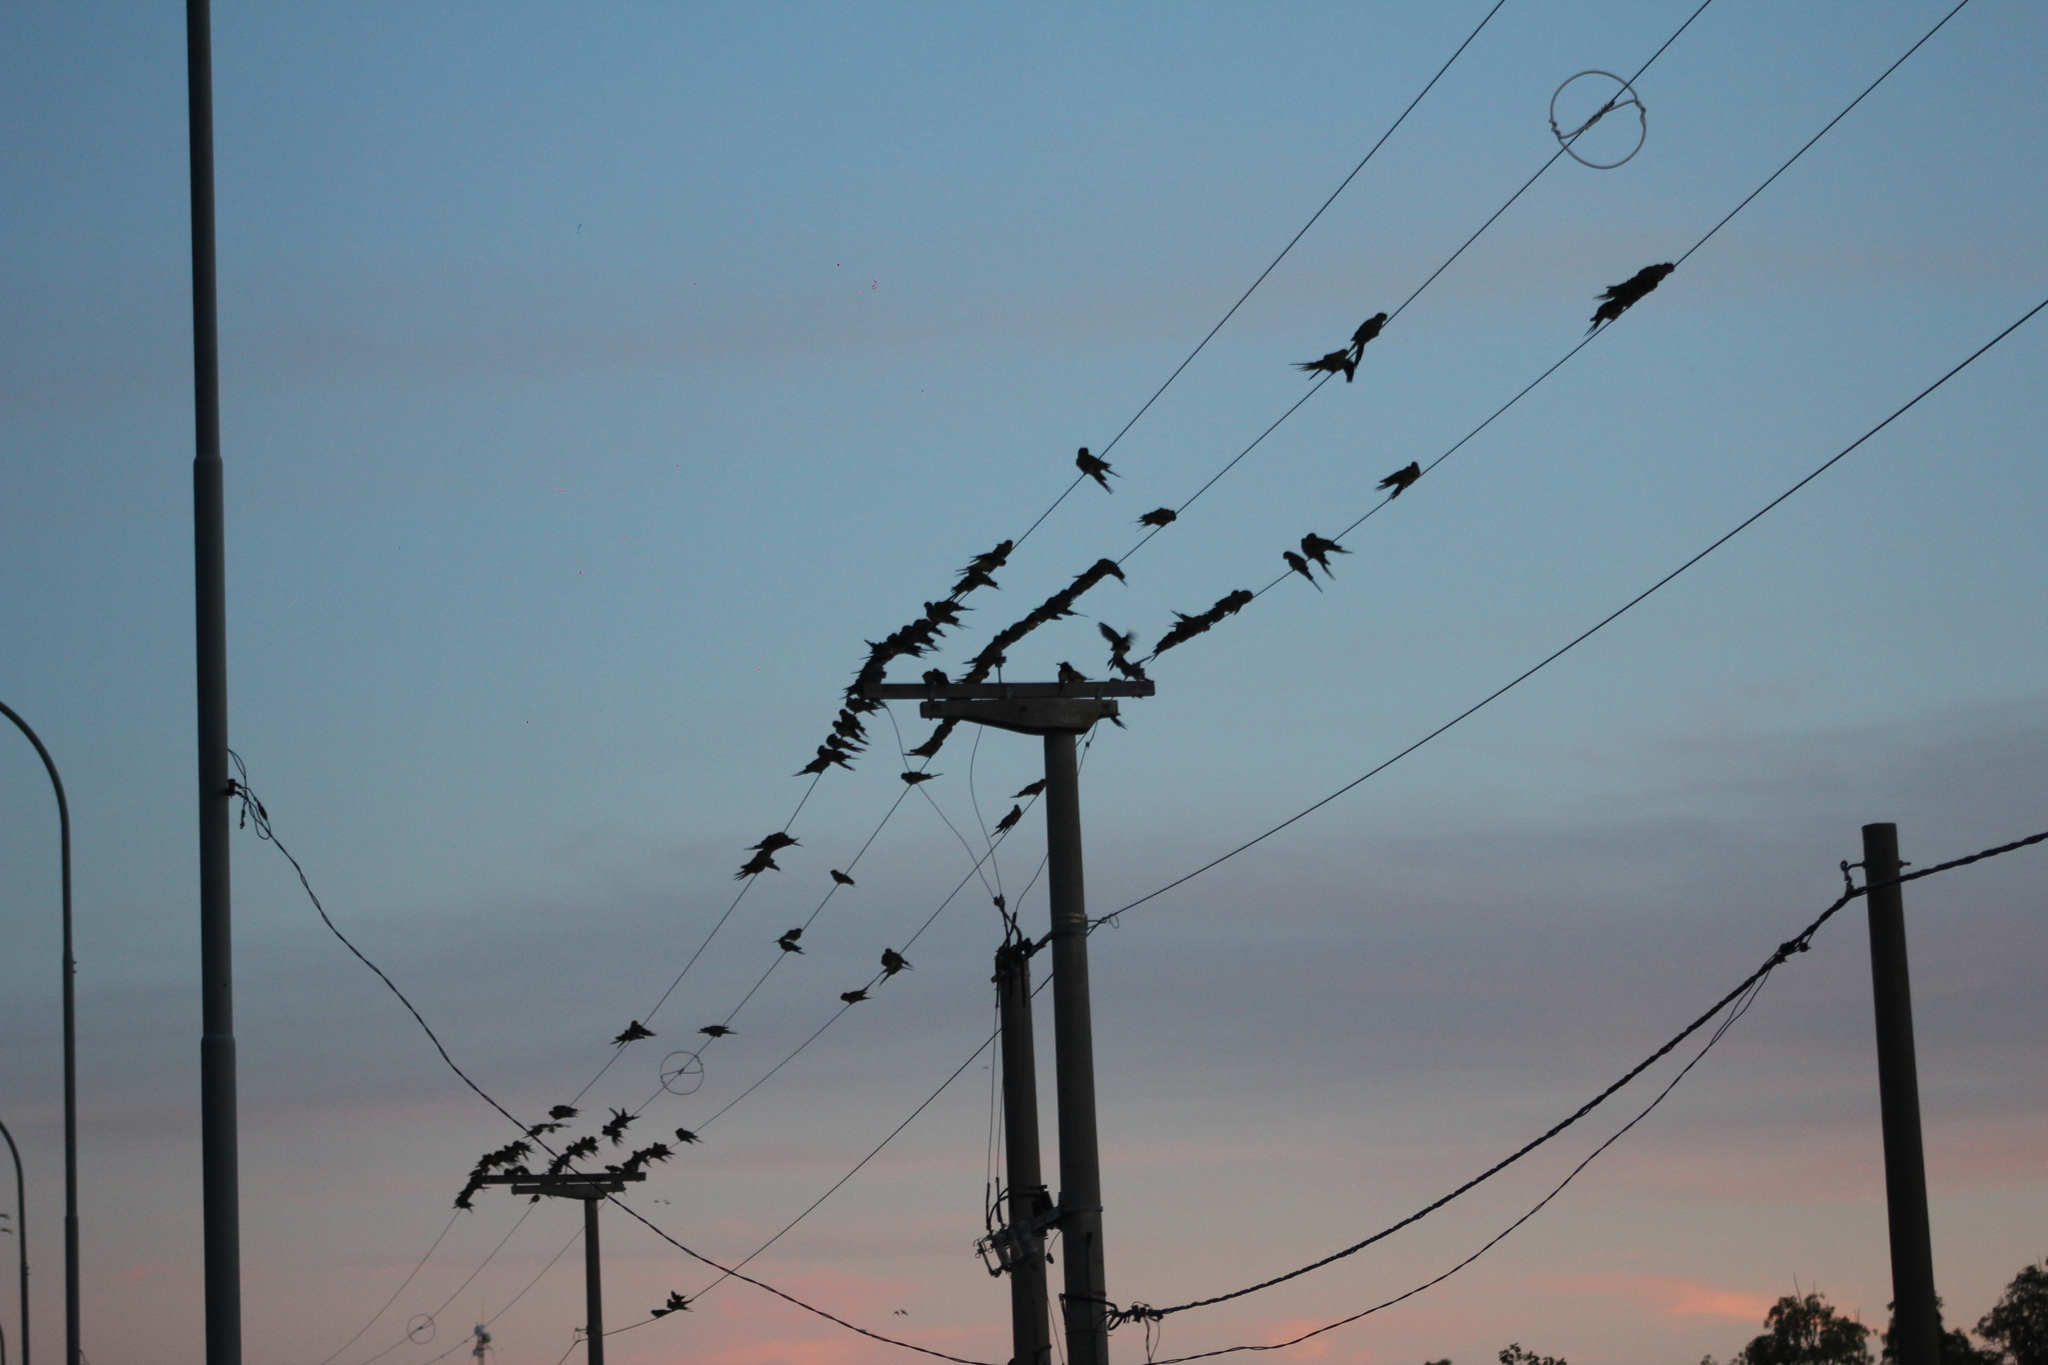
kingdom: Animalia
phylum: Chordata
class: Aves
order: Psittaciformes
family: Psittacidae
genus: Cyanoliseus
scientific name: Cyanoliseus patagonus
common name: Burrowing parrot
